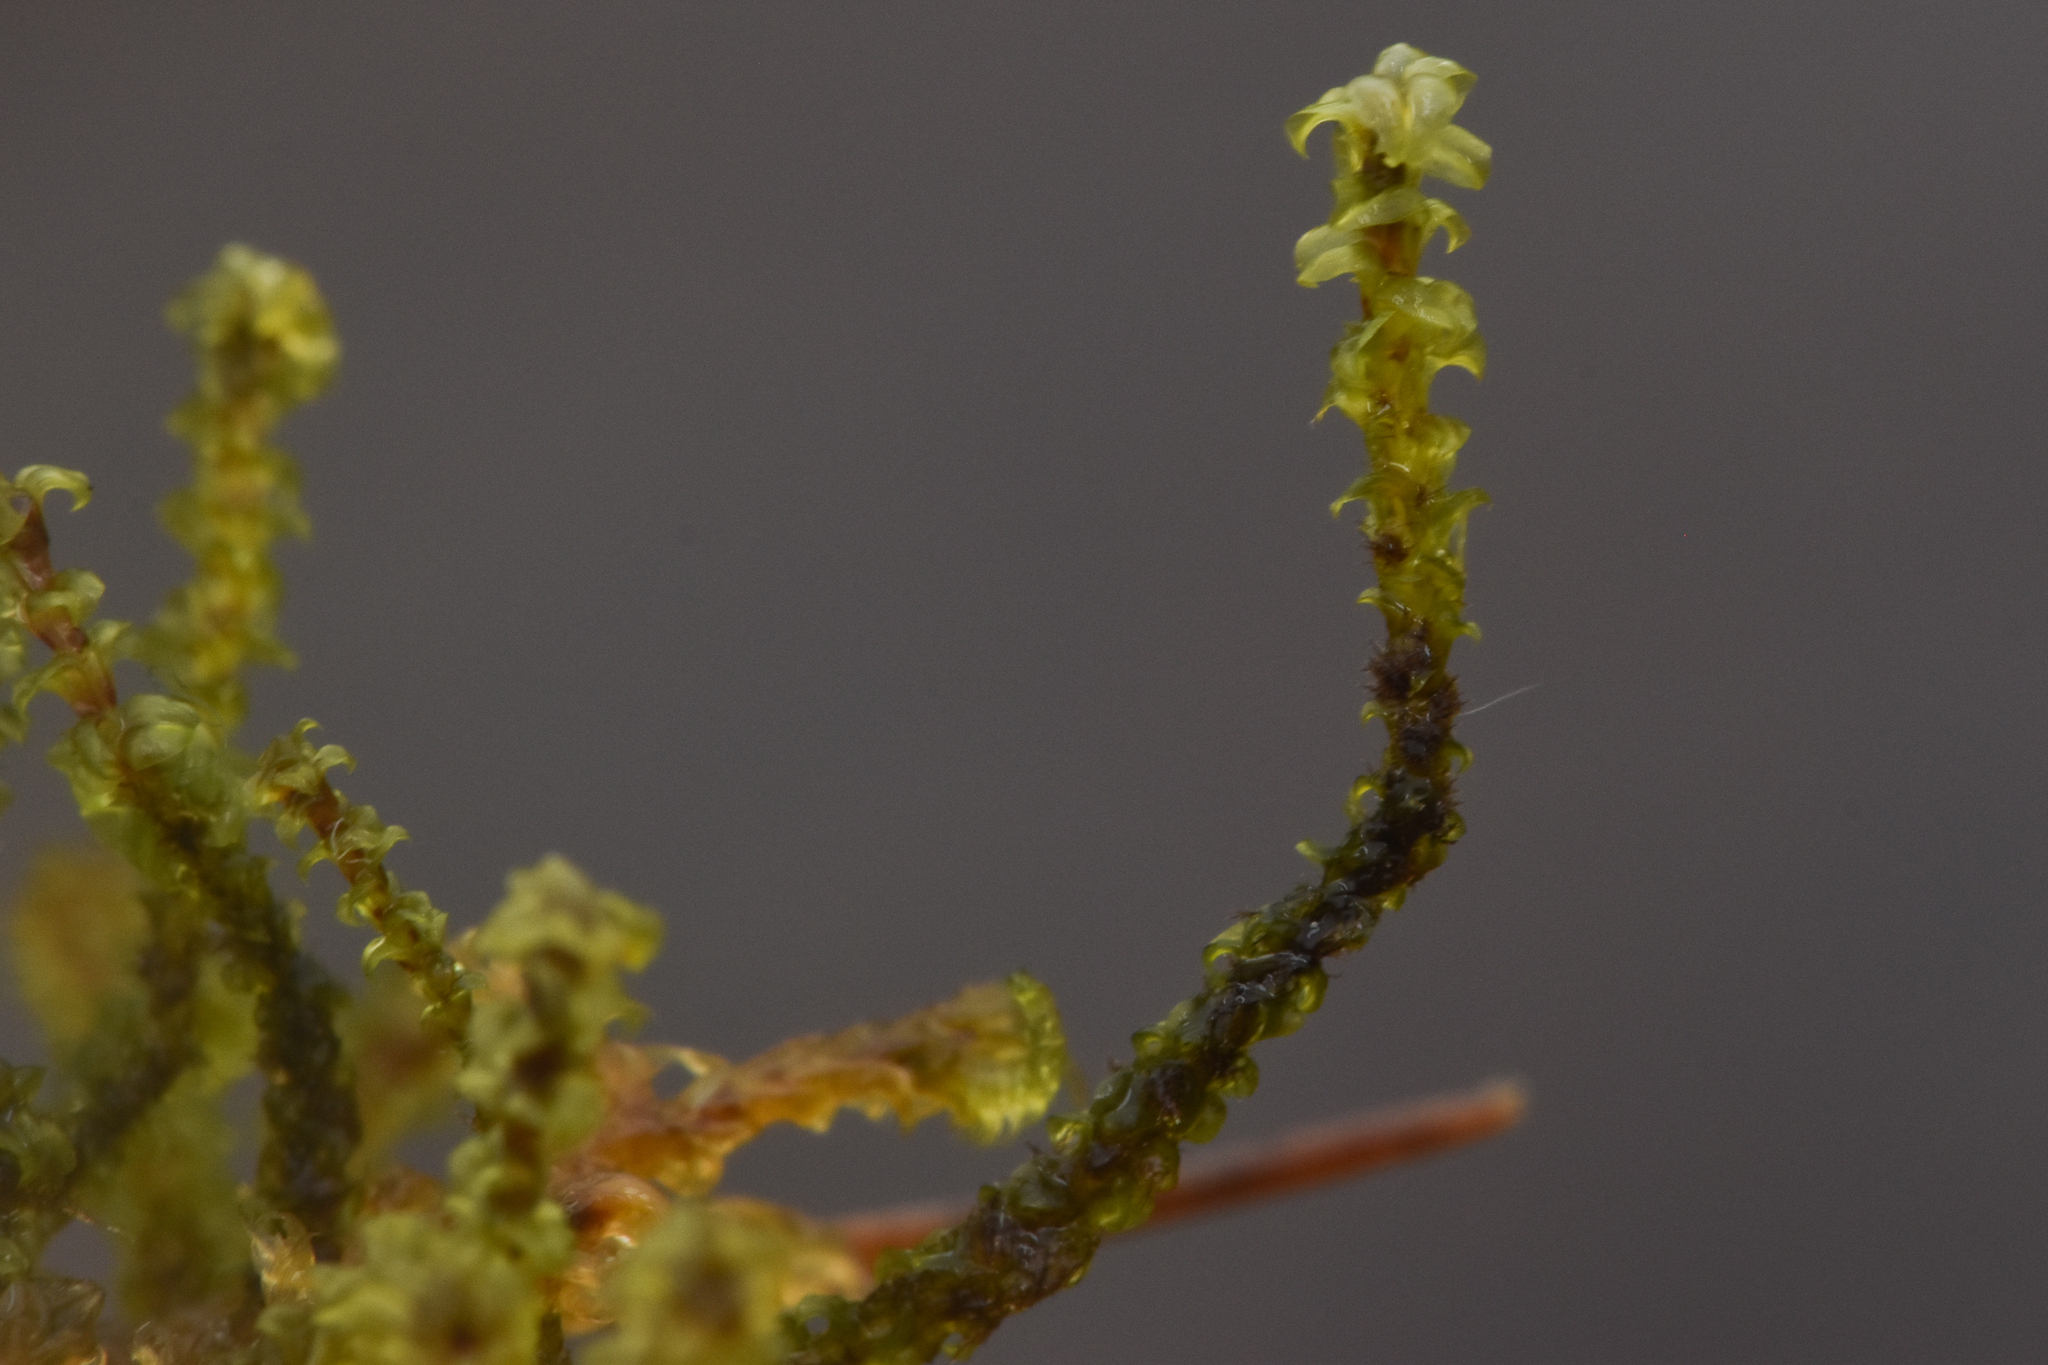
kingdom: Plantae
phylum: Bryophyta
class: Bryopsida
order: Splachnales
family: Meesiaceae
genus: Paludella
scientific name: Paludella squarrosa
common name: Tufted fen moss
